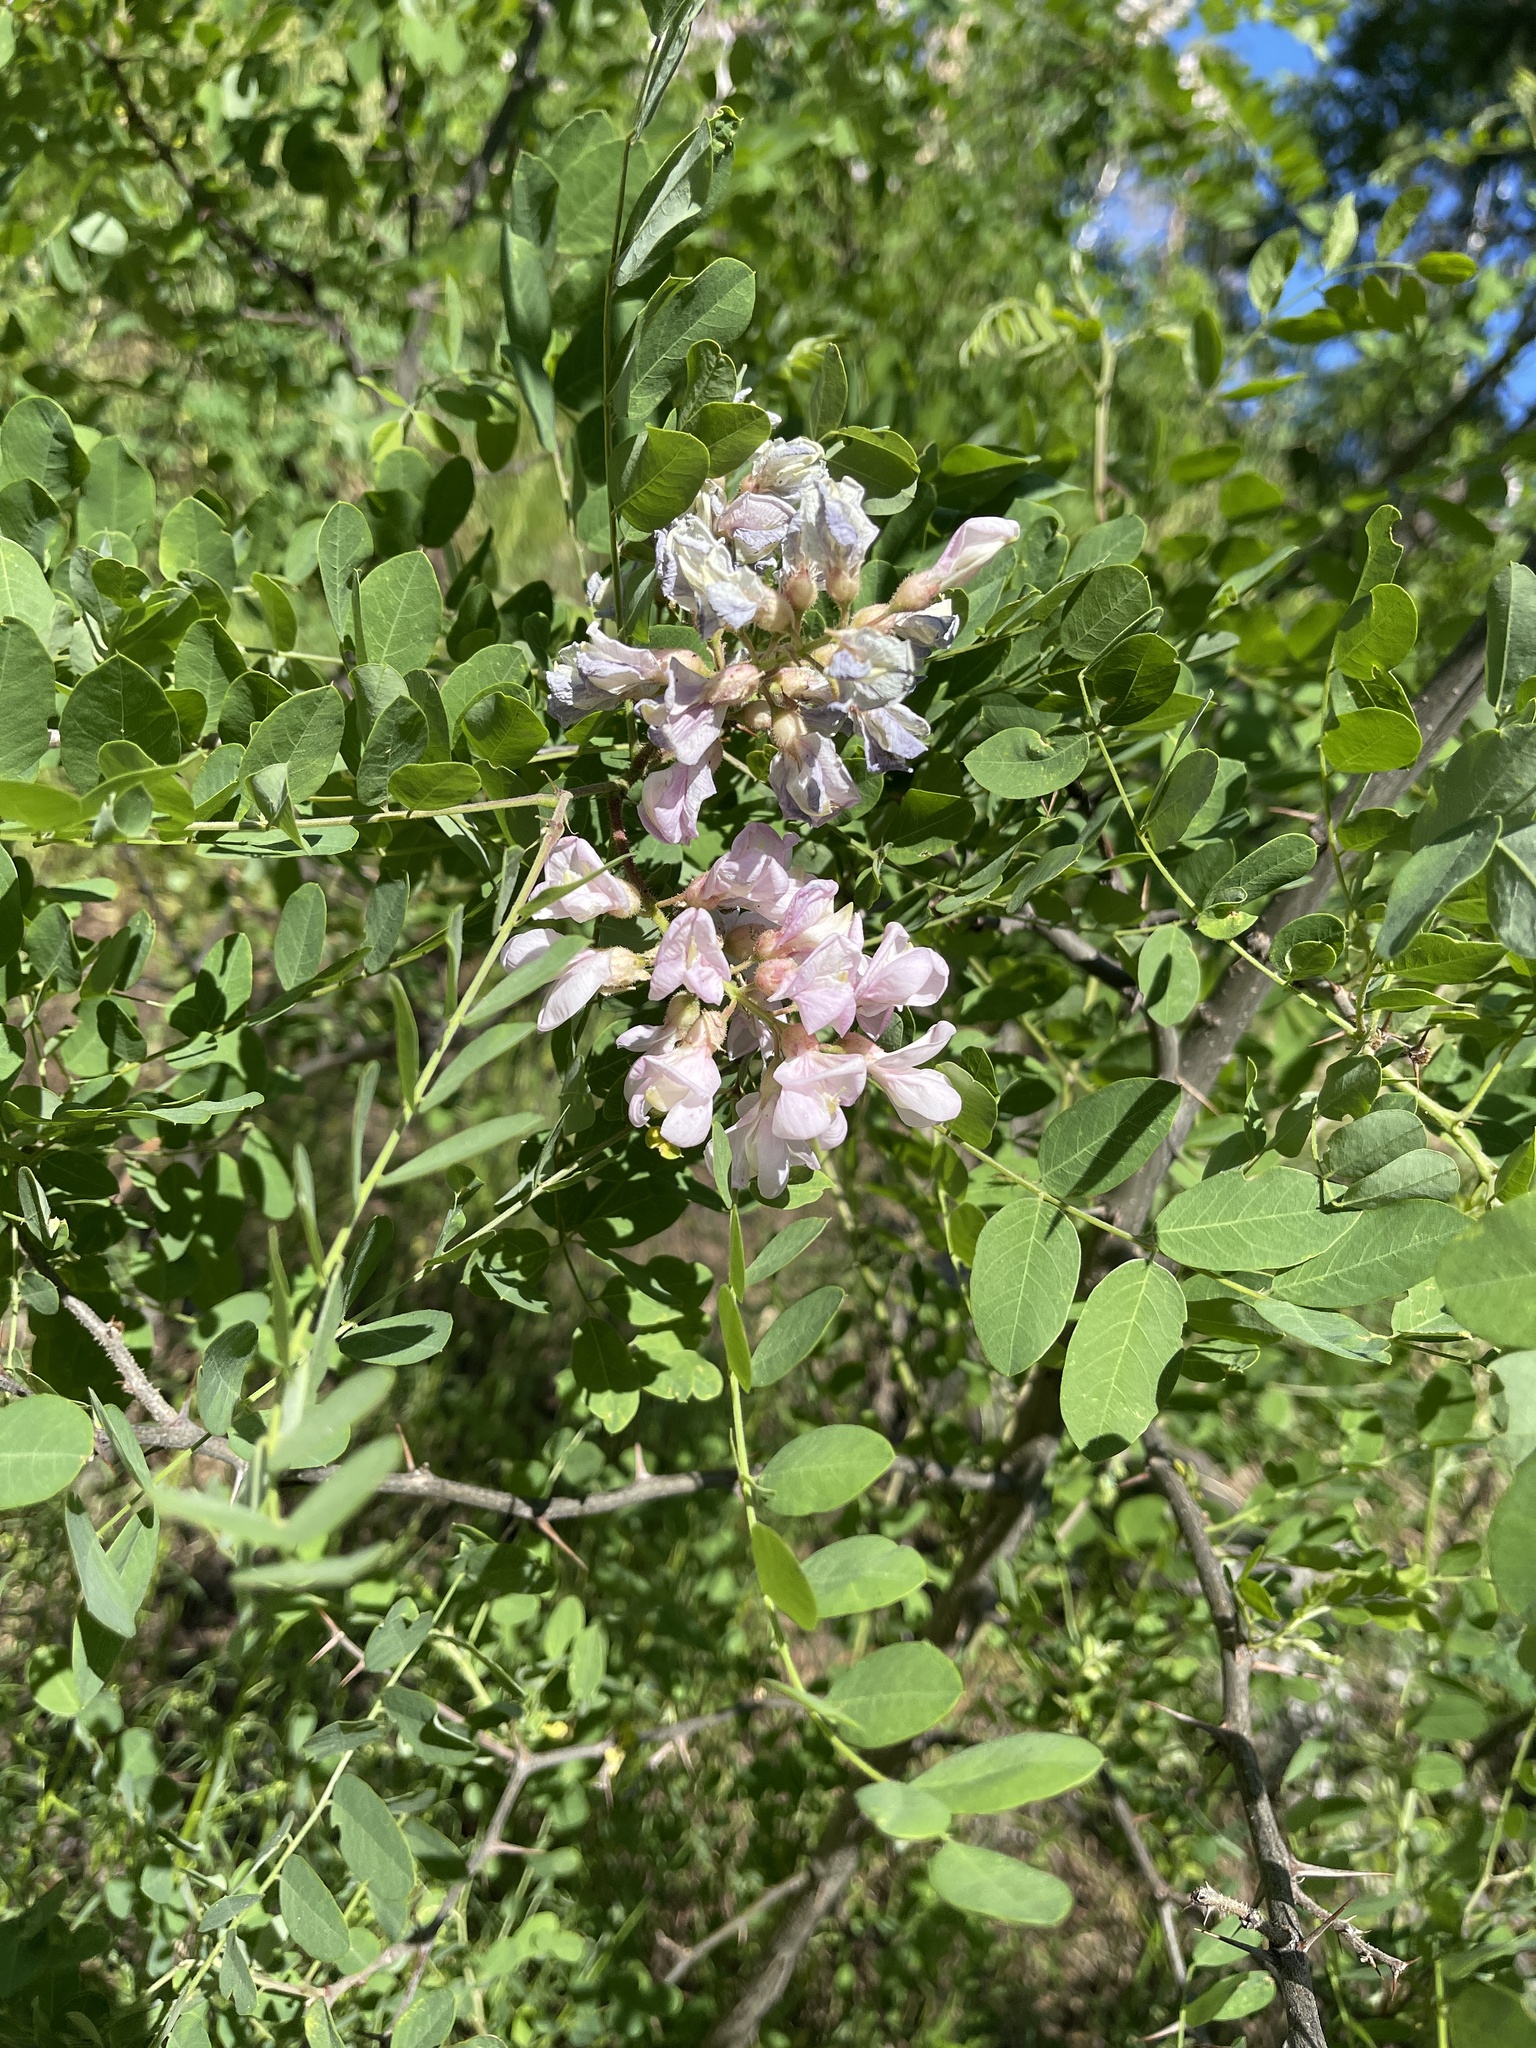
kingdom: Plantae
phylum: Tracheophyta
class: Magnoliopsida
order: Fabales
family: Fabaceae
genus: Robinia
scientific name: Robinia neomexicana
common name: New mexico locust
